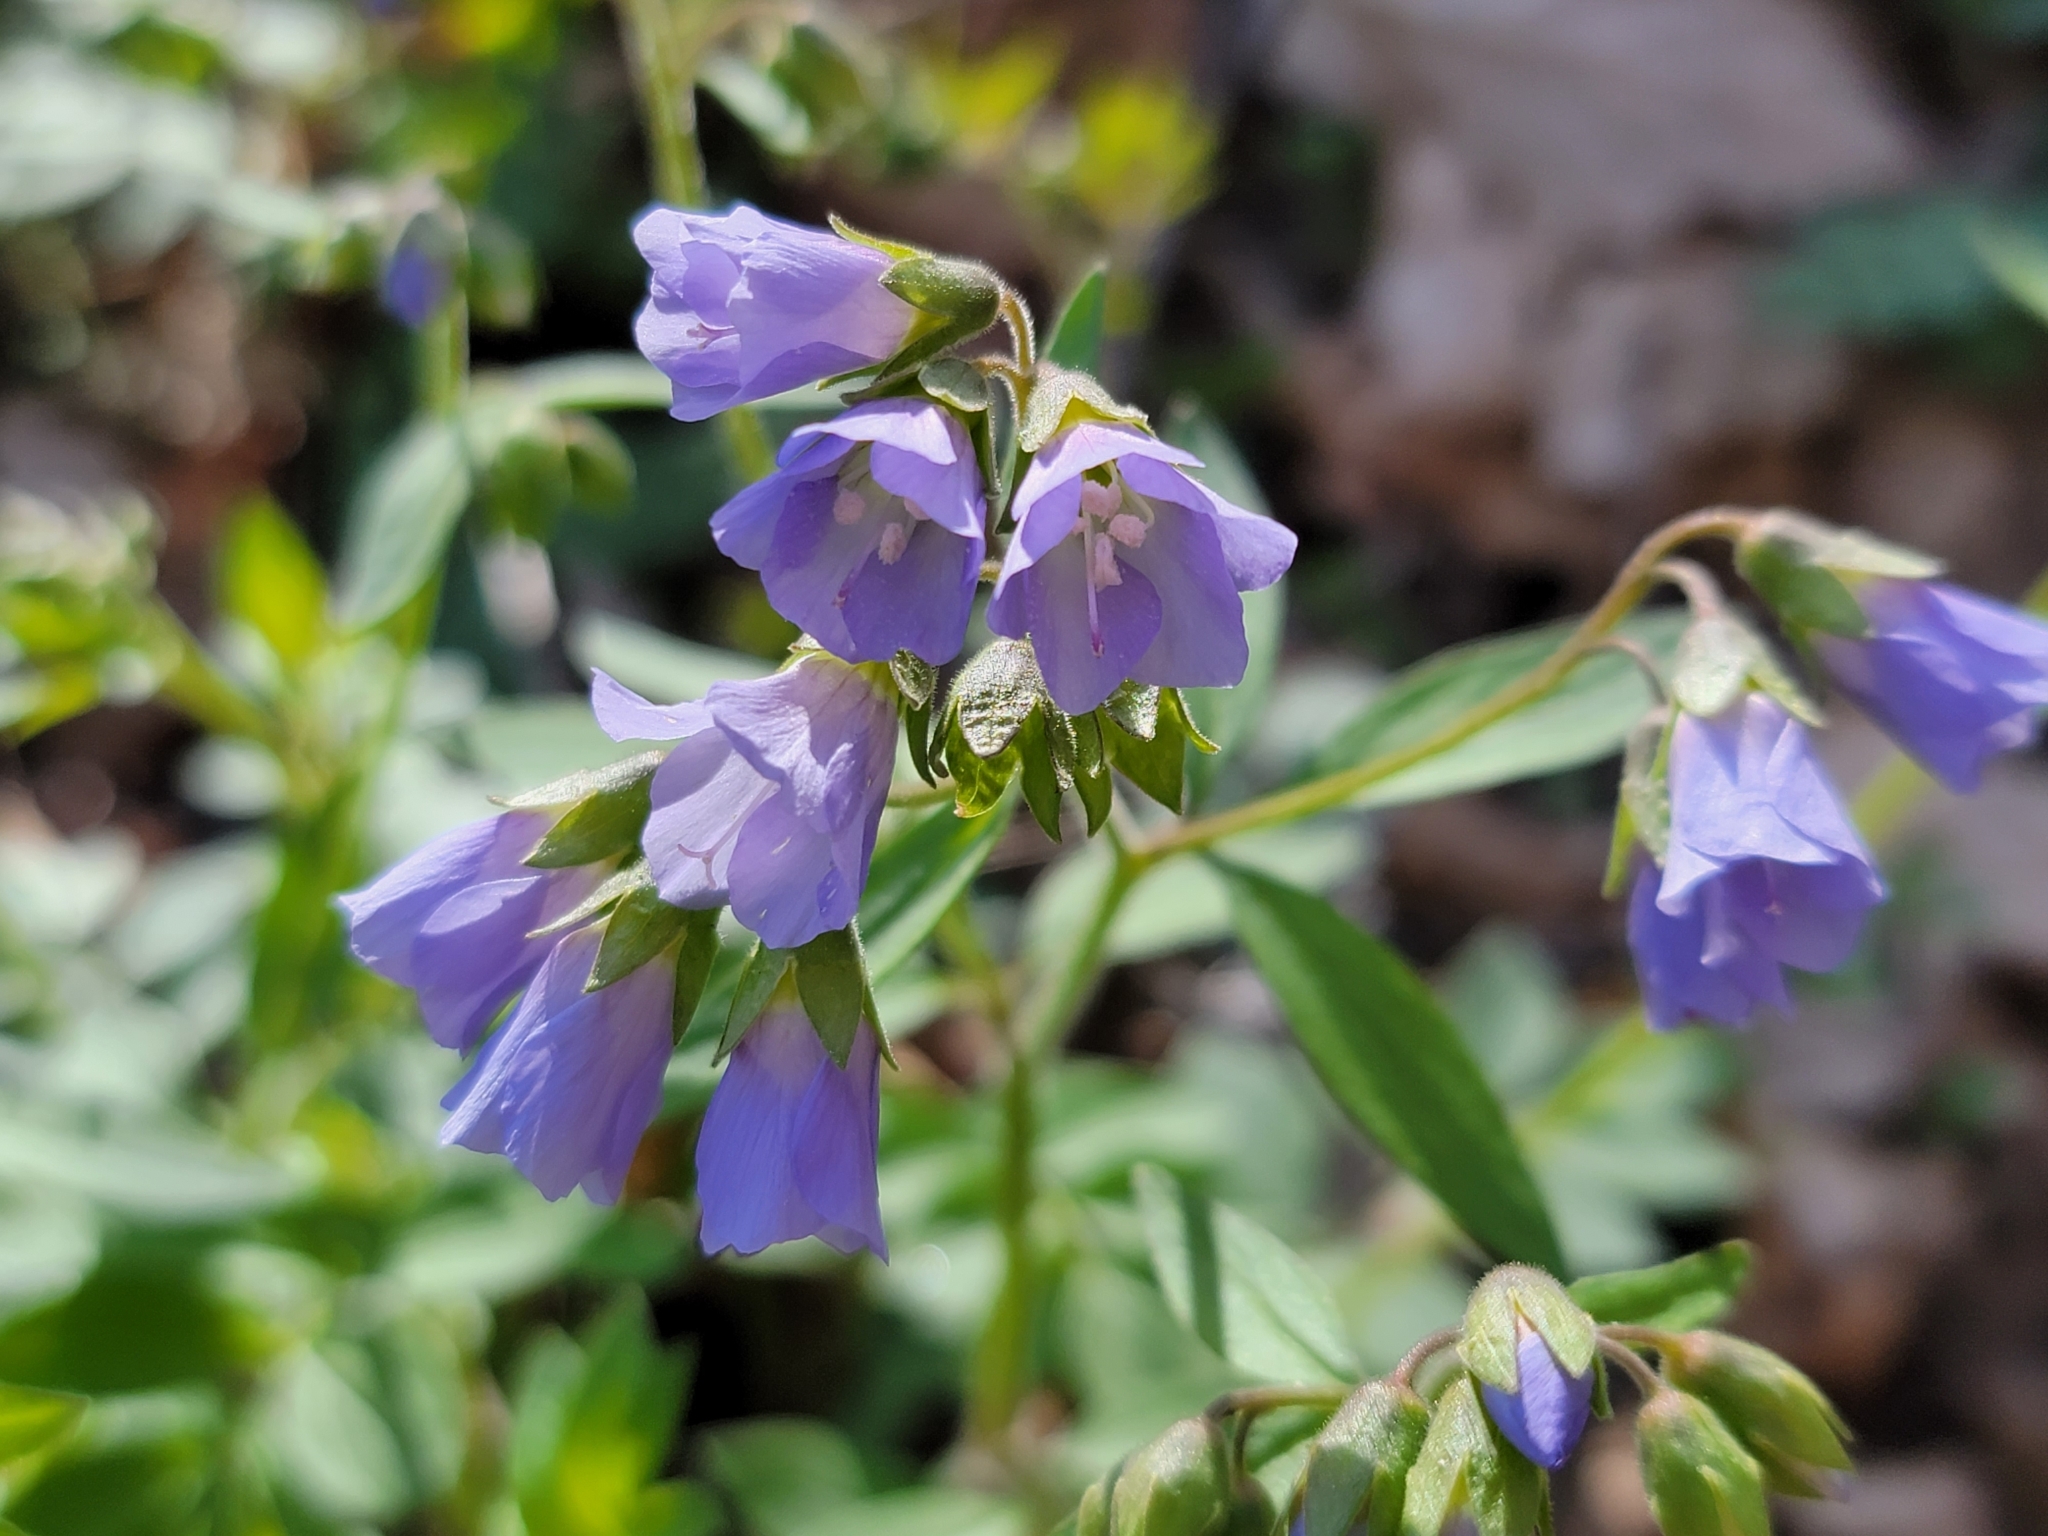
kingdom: Plantae
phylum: Tracheophyta
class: Magnoliopsida
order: Ericales
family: Polemoniaceae
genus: Polemonium
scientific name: Polemonium reptans
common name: Creeping jacob's-ladder
